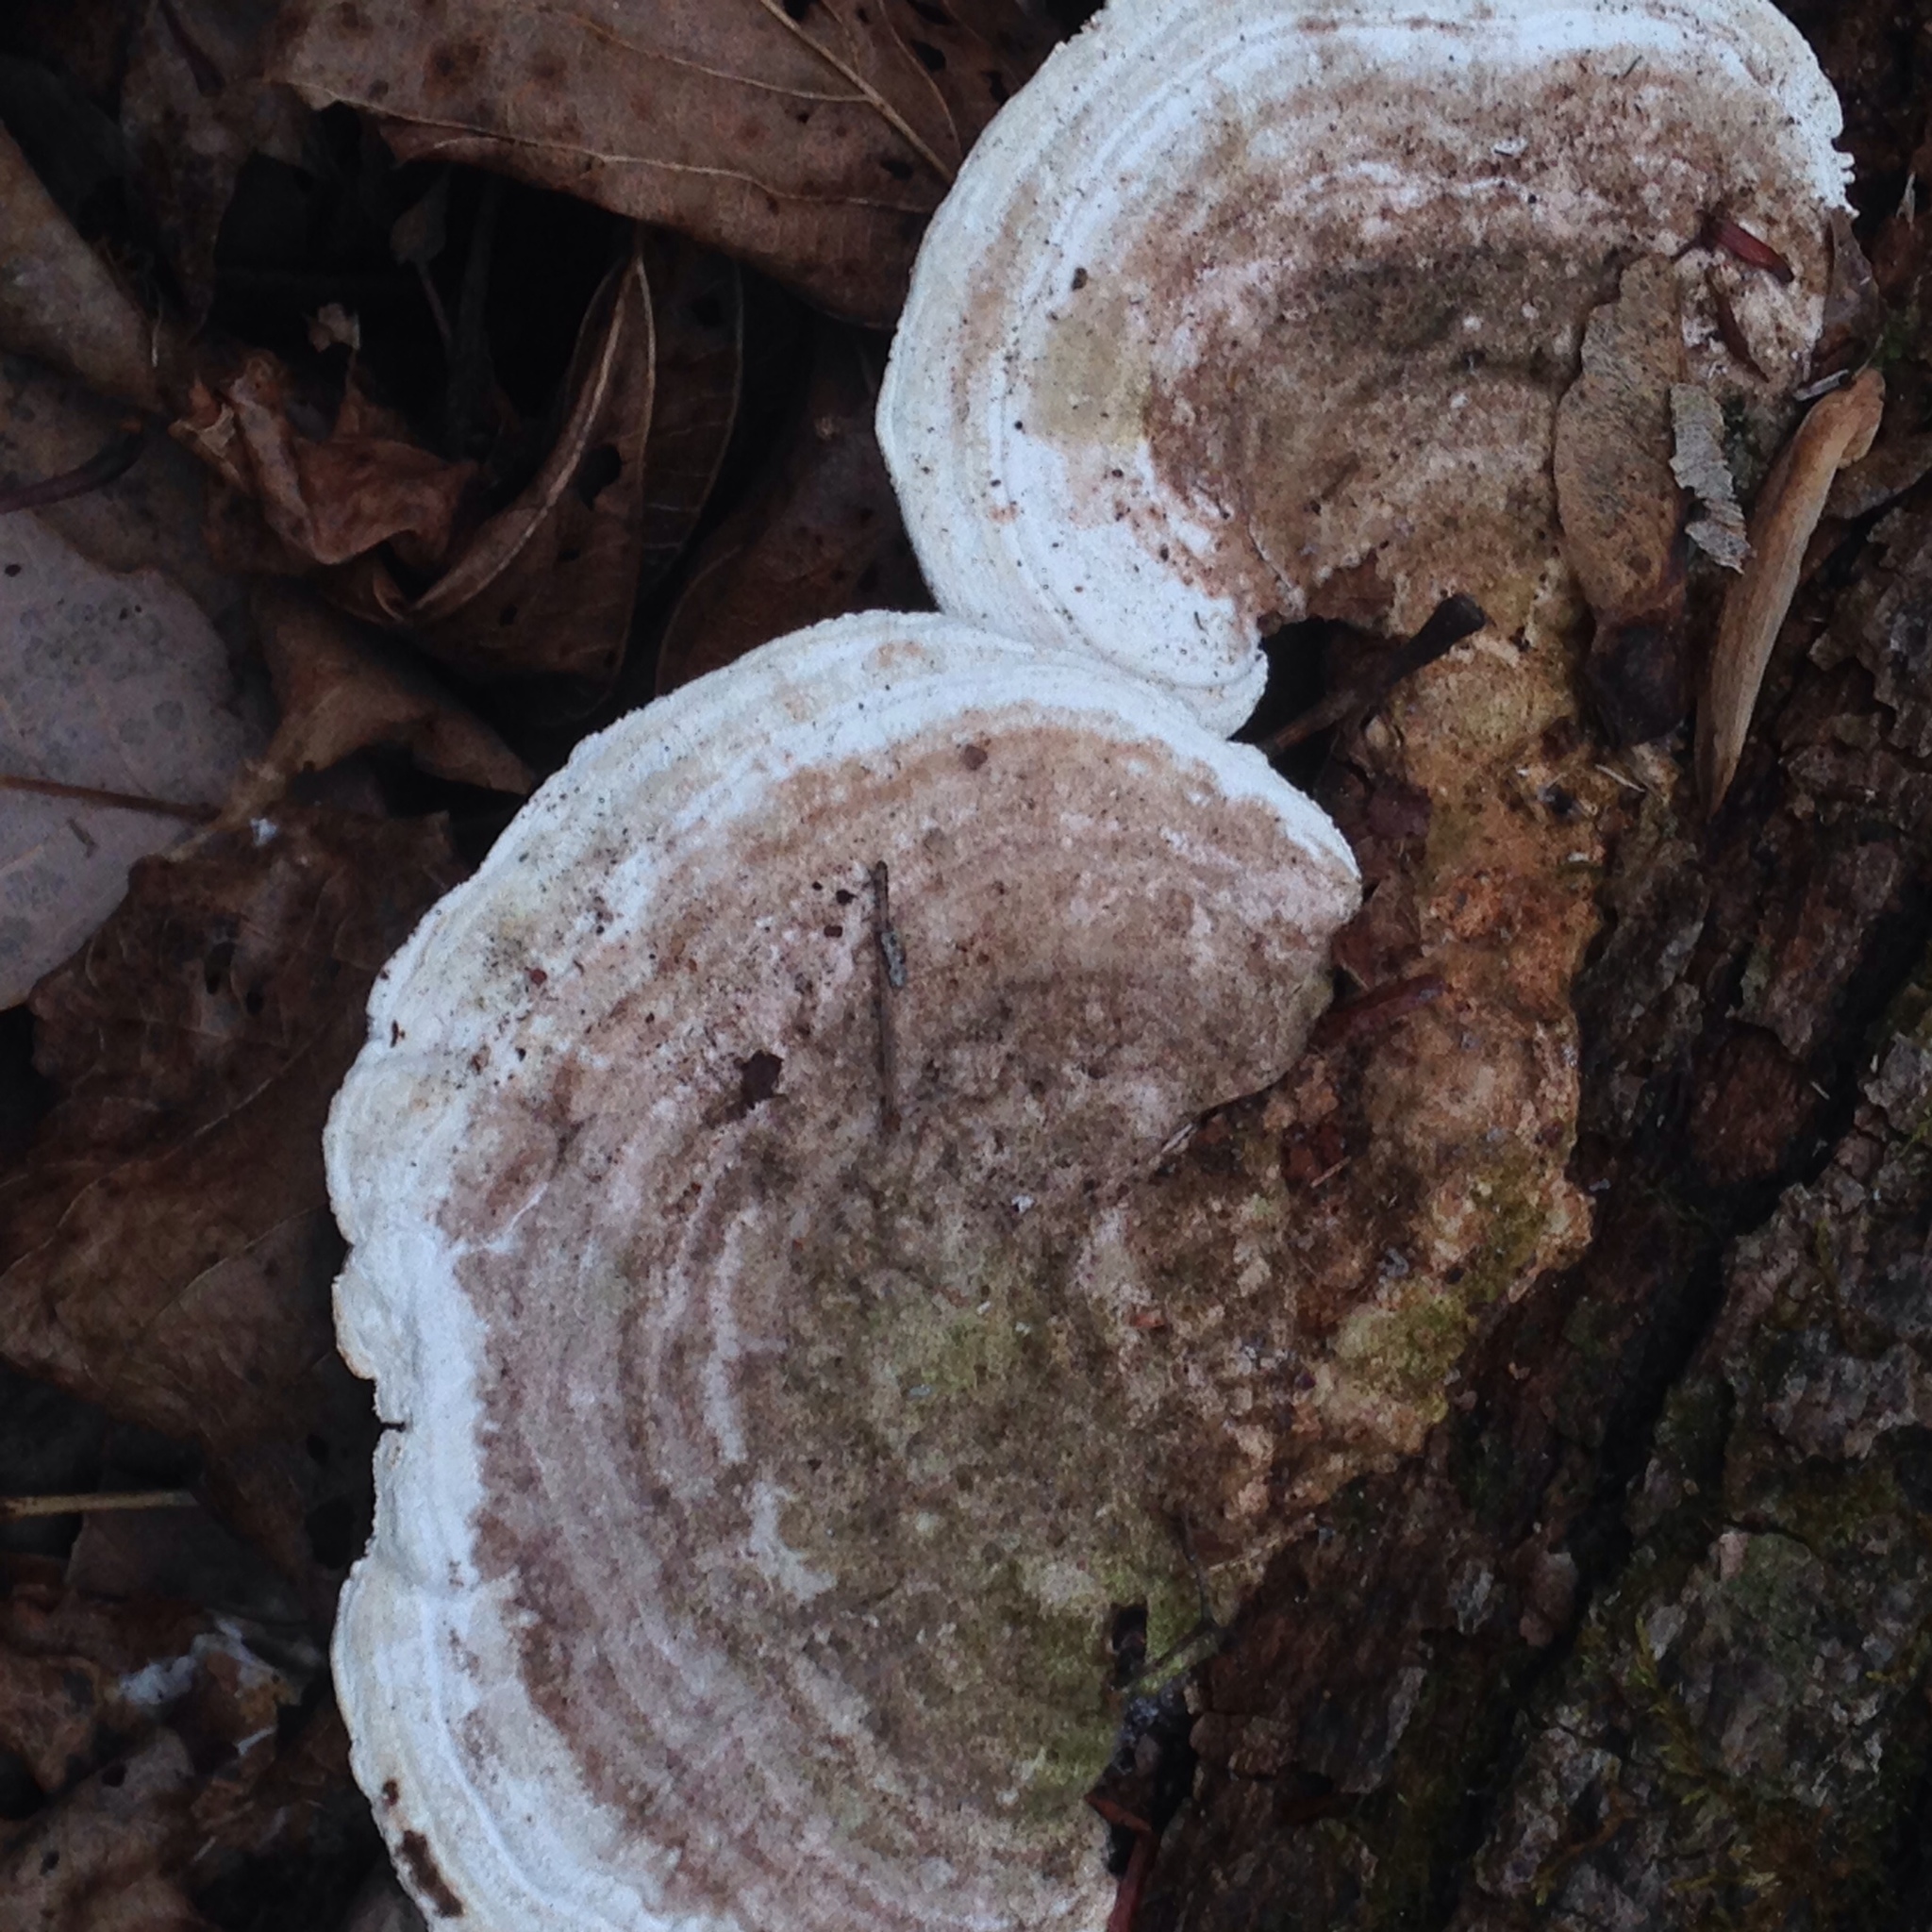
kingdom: Fungi
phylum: Basidiomycota
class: Agaricomycetes
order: Polyporales
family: Polyporaceae
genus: Trametes
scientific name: Trametes gibbosa
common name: Lumpy bracket
